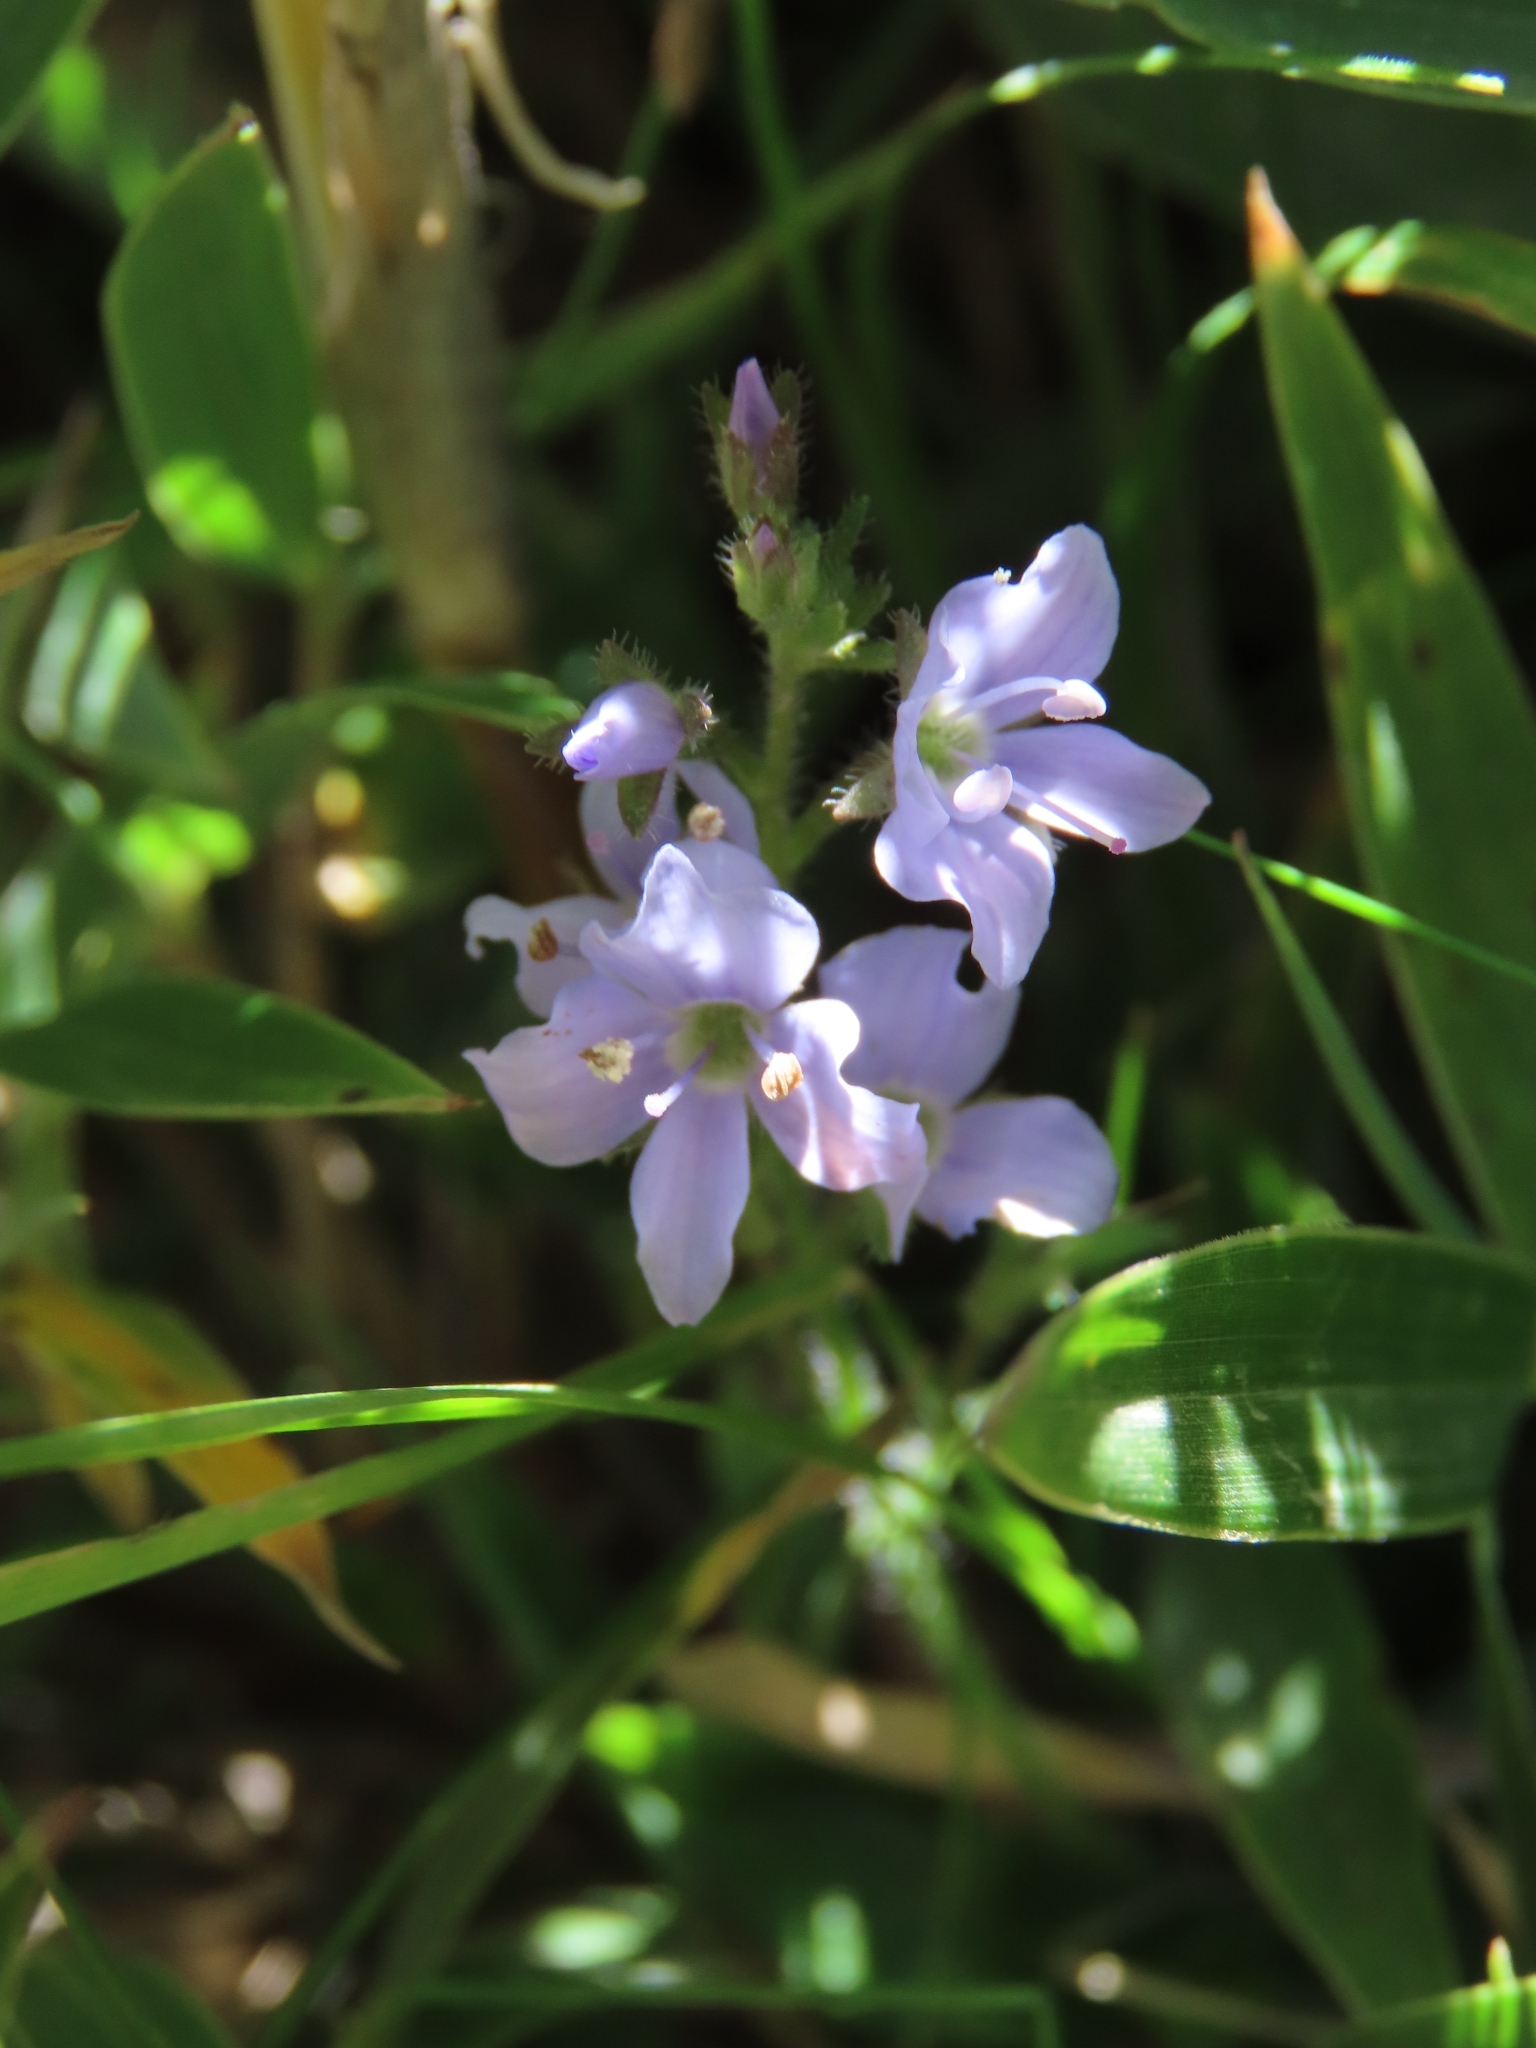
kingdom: Plantae
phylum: Tracheophyta
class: Magnoliopsida
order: Lamiales
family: Plantaginaceae
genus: Veronica
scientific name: Veronica morrisonicola
